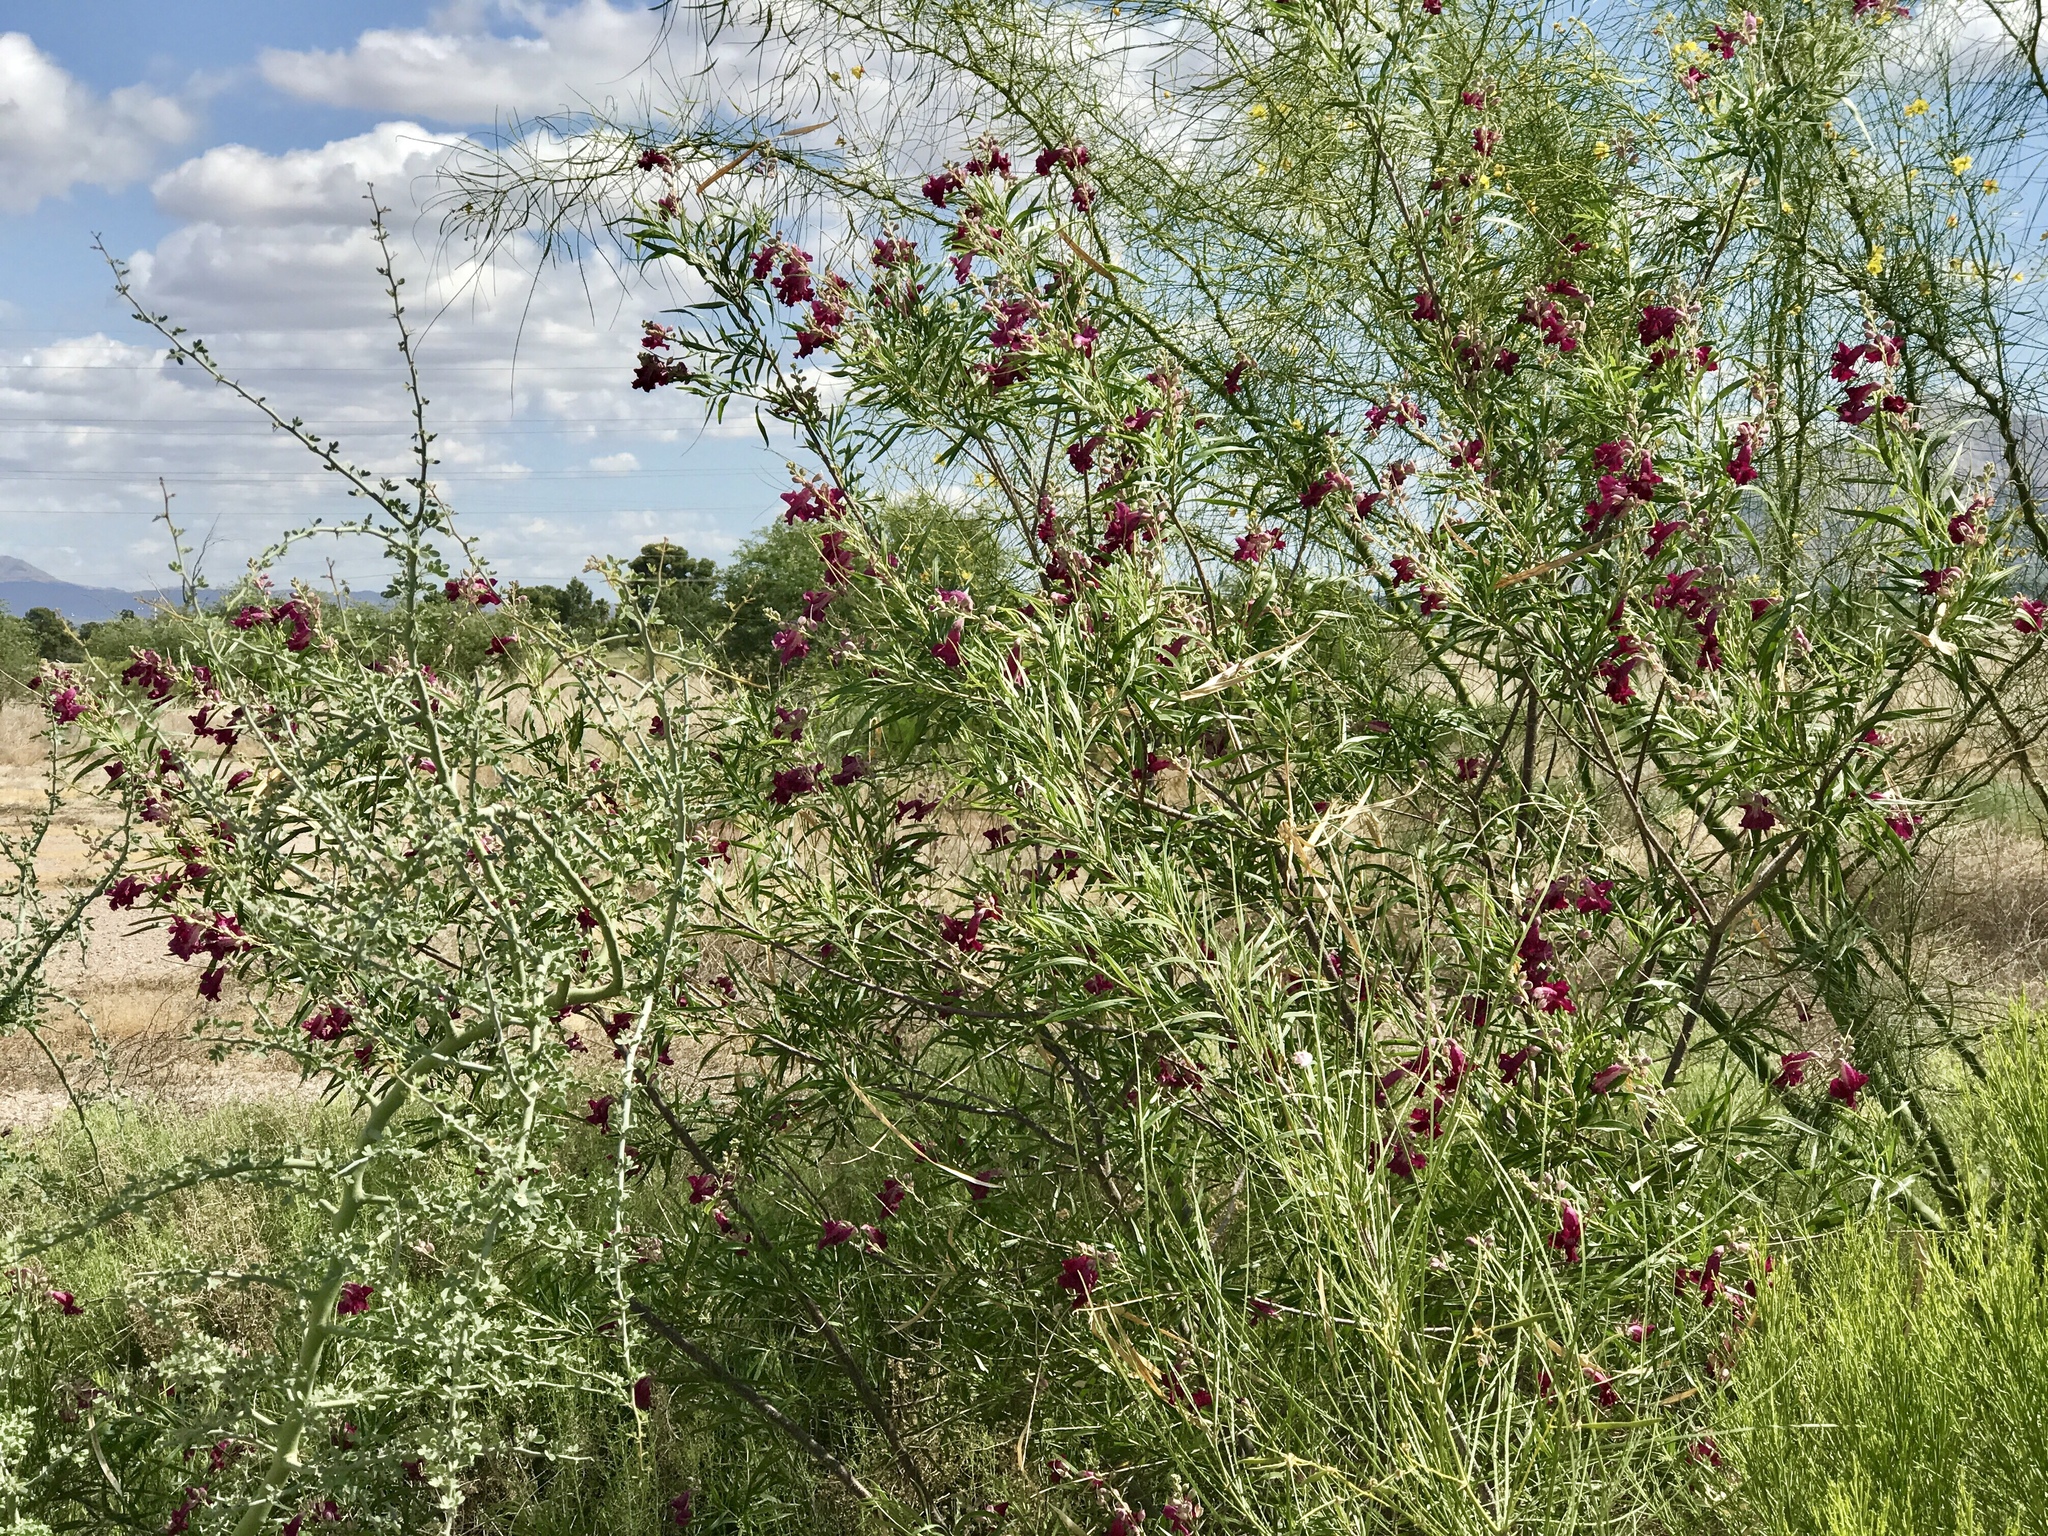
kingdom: Plantae
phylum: Tracheophyta
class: Magnoliopsida
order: Lamiales
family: Bignoniaceae
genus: Chilopsis
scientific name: Chilopsis linearis
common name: Desert-willow
